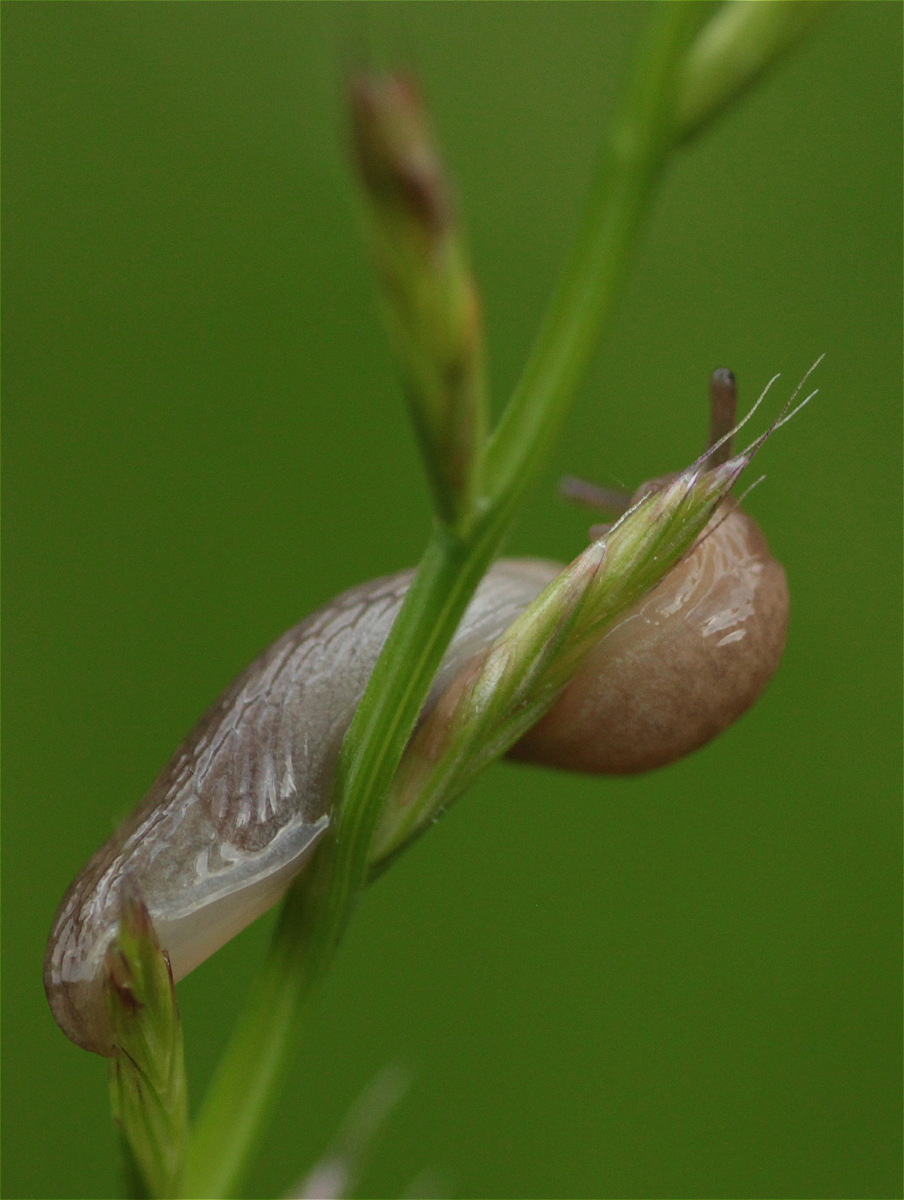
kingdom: Animalia
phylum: Mollusca
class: Gastropoda
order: Stylommatophora
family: Agriolimacidae
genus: Deroceras
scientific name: Deroceras reticulatum
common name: Gray field slug
